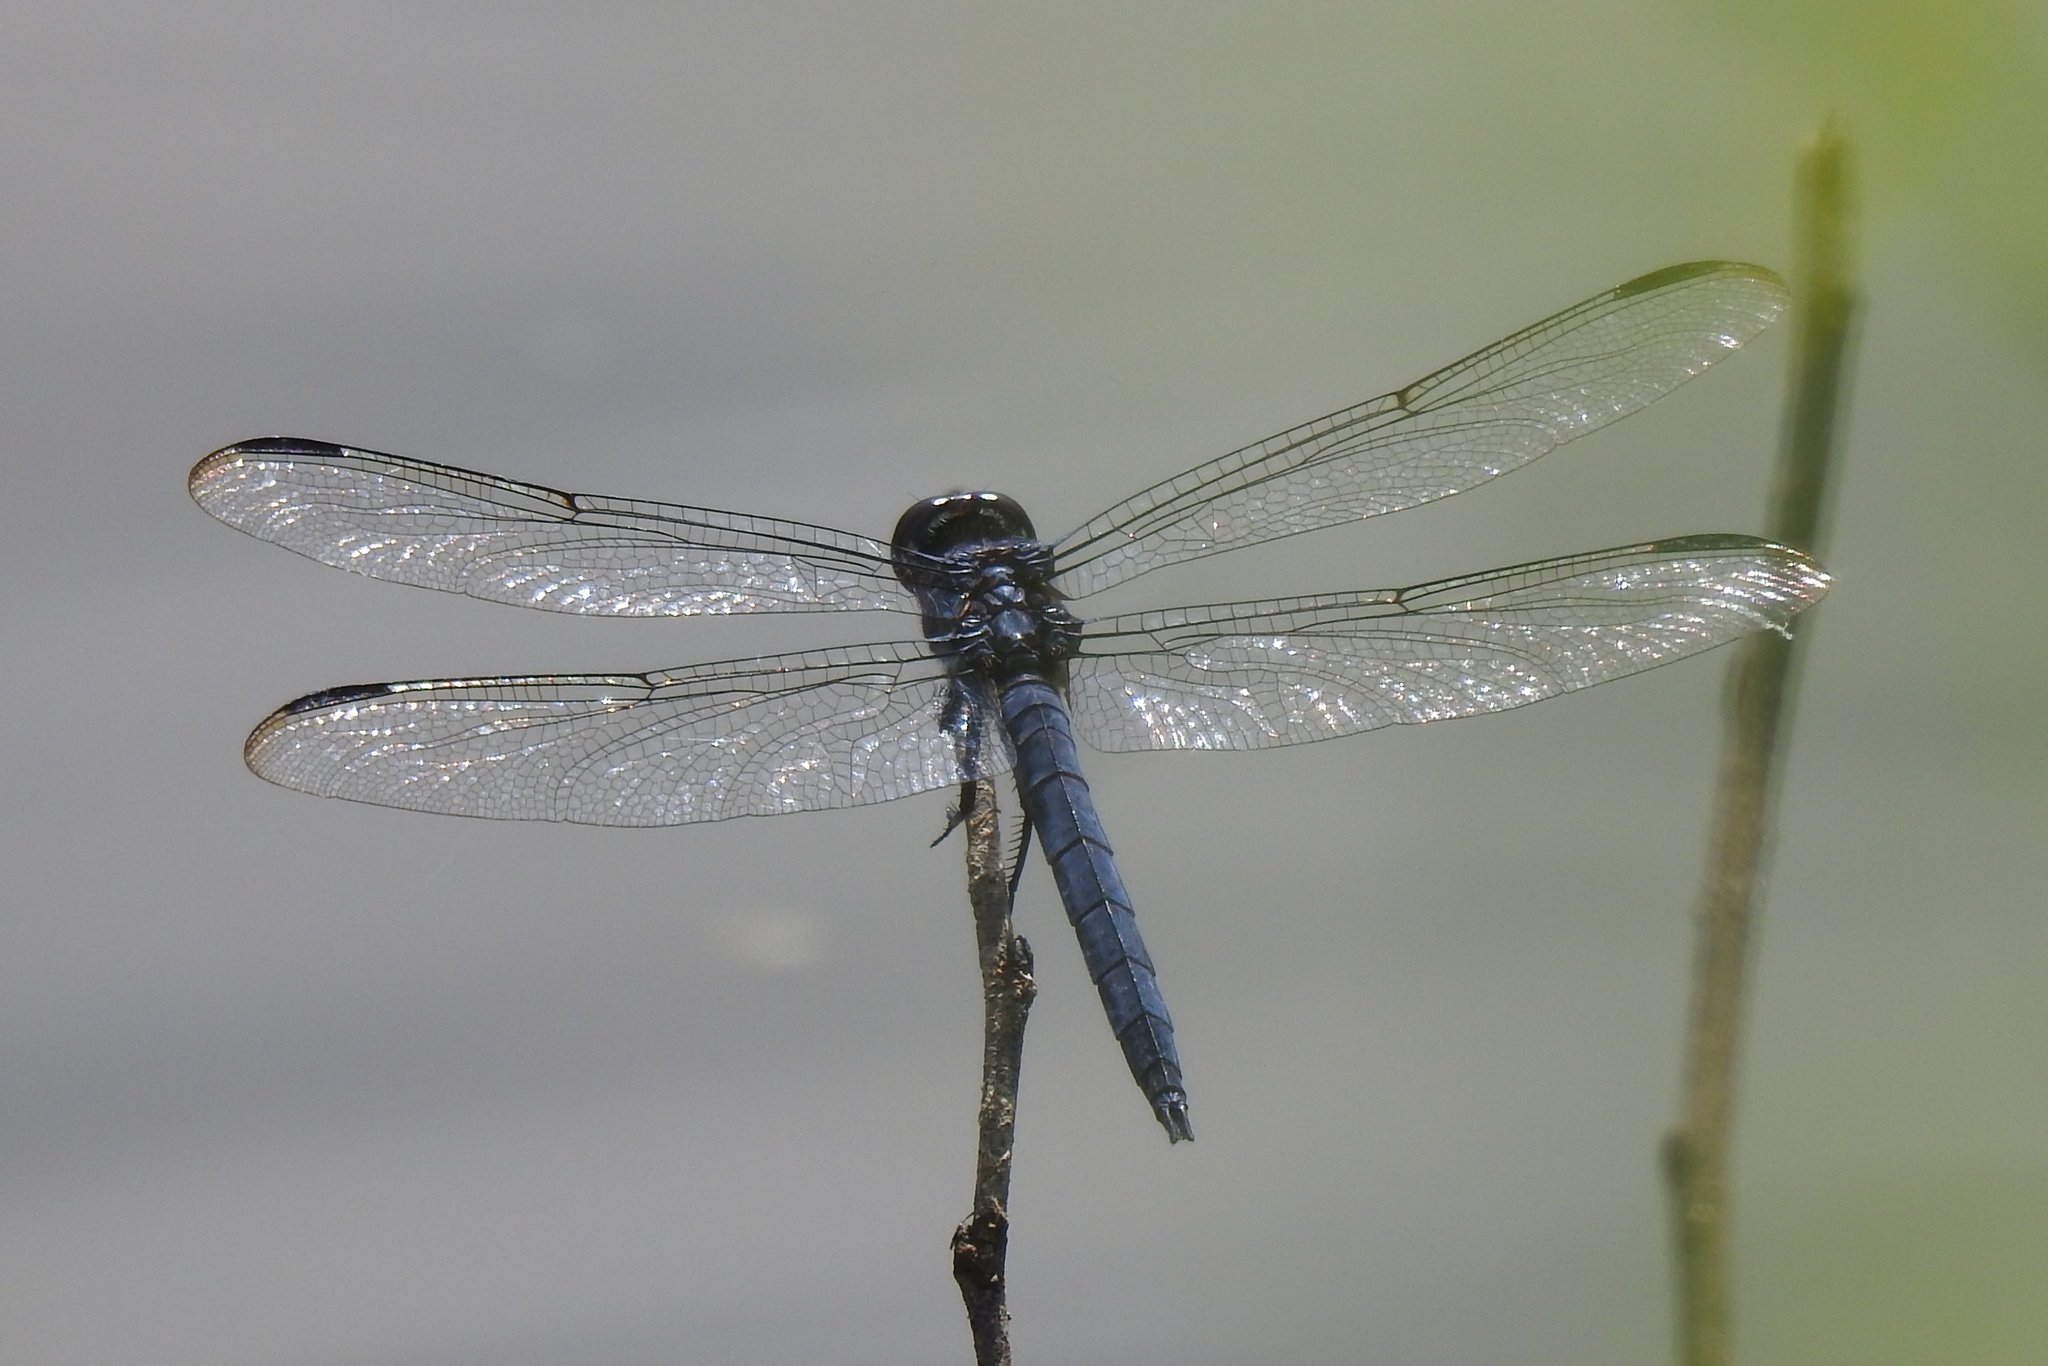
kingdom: Animalia
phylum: Arthropoda
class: Insecta
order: Odonata
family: Libellulidae
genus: Libellula
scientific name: Libellula incesta
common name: Slaty skimmer
